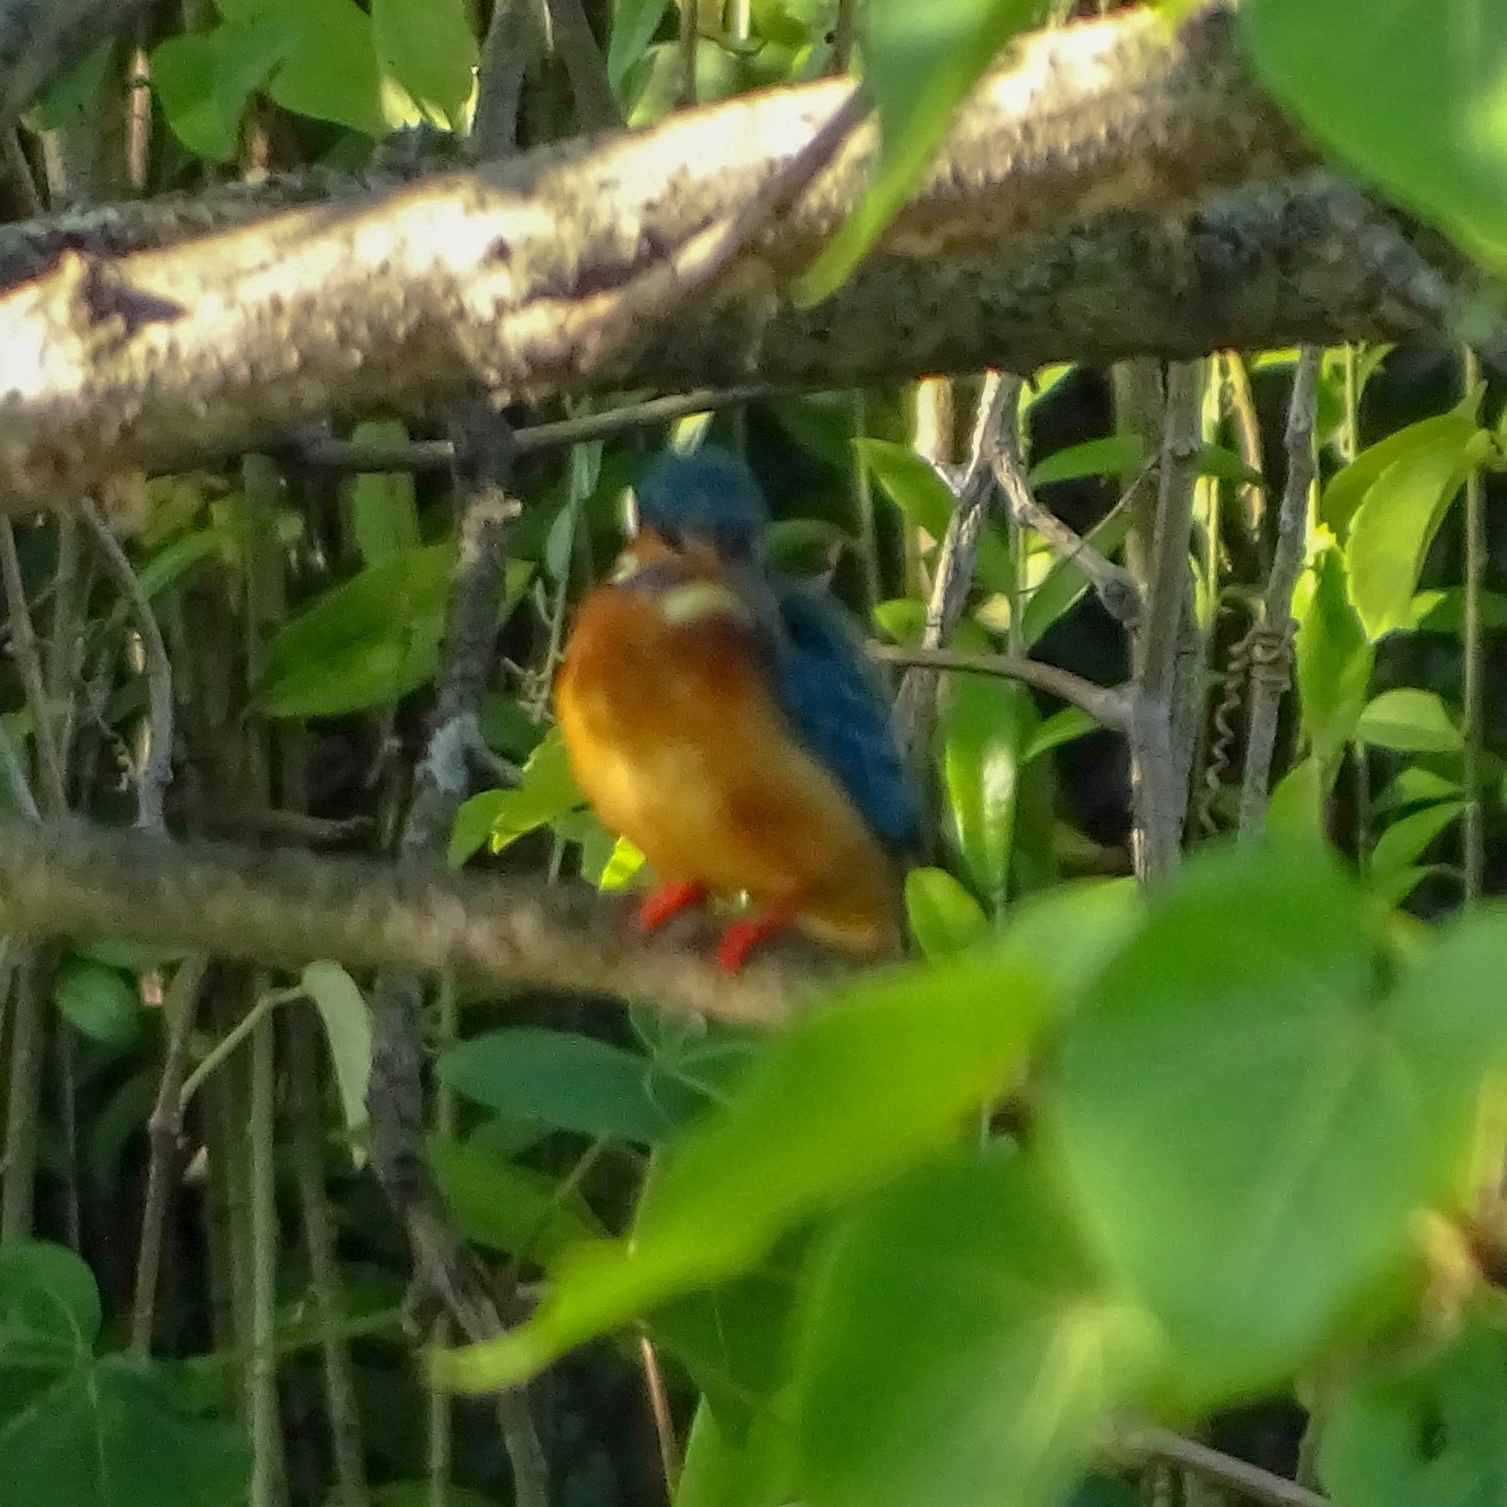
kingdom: Animalia
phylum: Chordata
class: Aves
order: Coraciiformes
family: Alcedinidae
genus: Alcedo
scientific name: Alcedo atthis
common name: Common kingfisher
